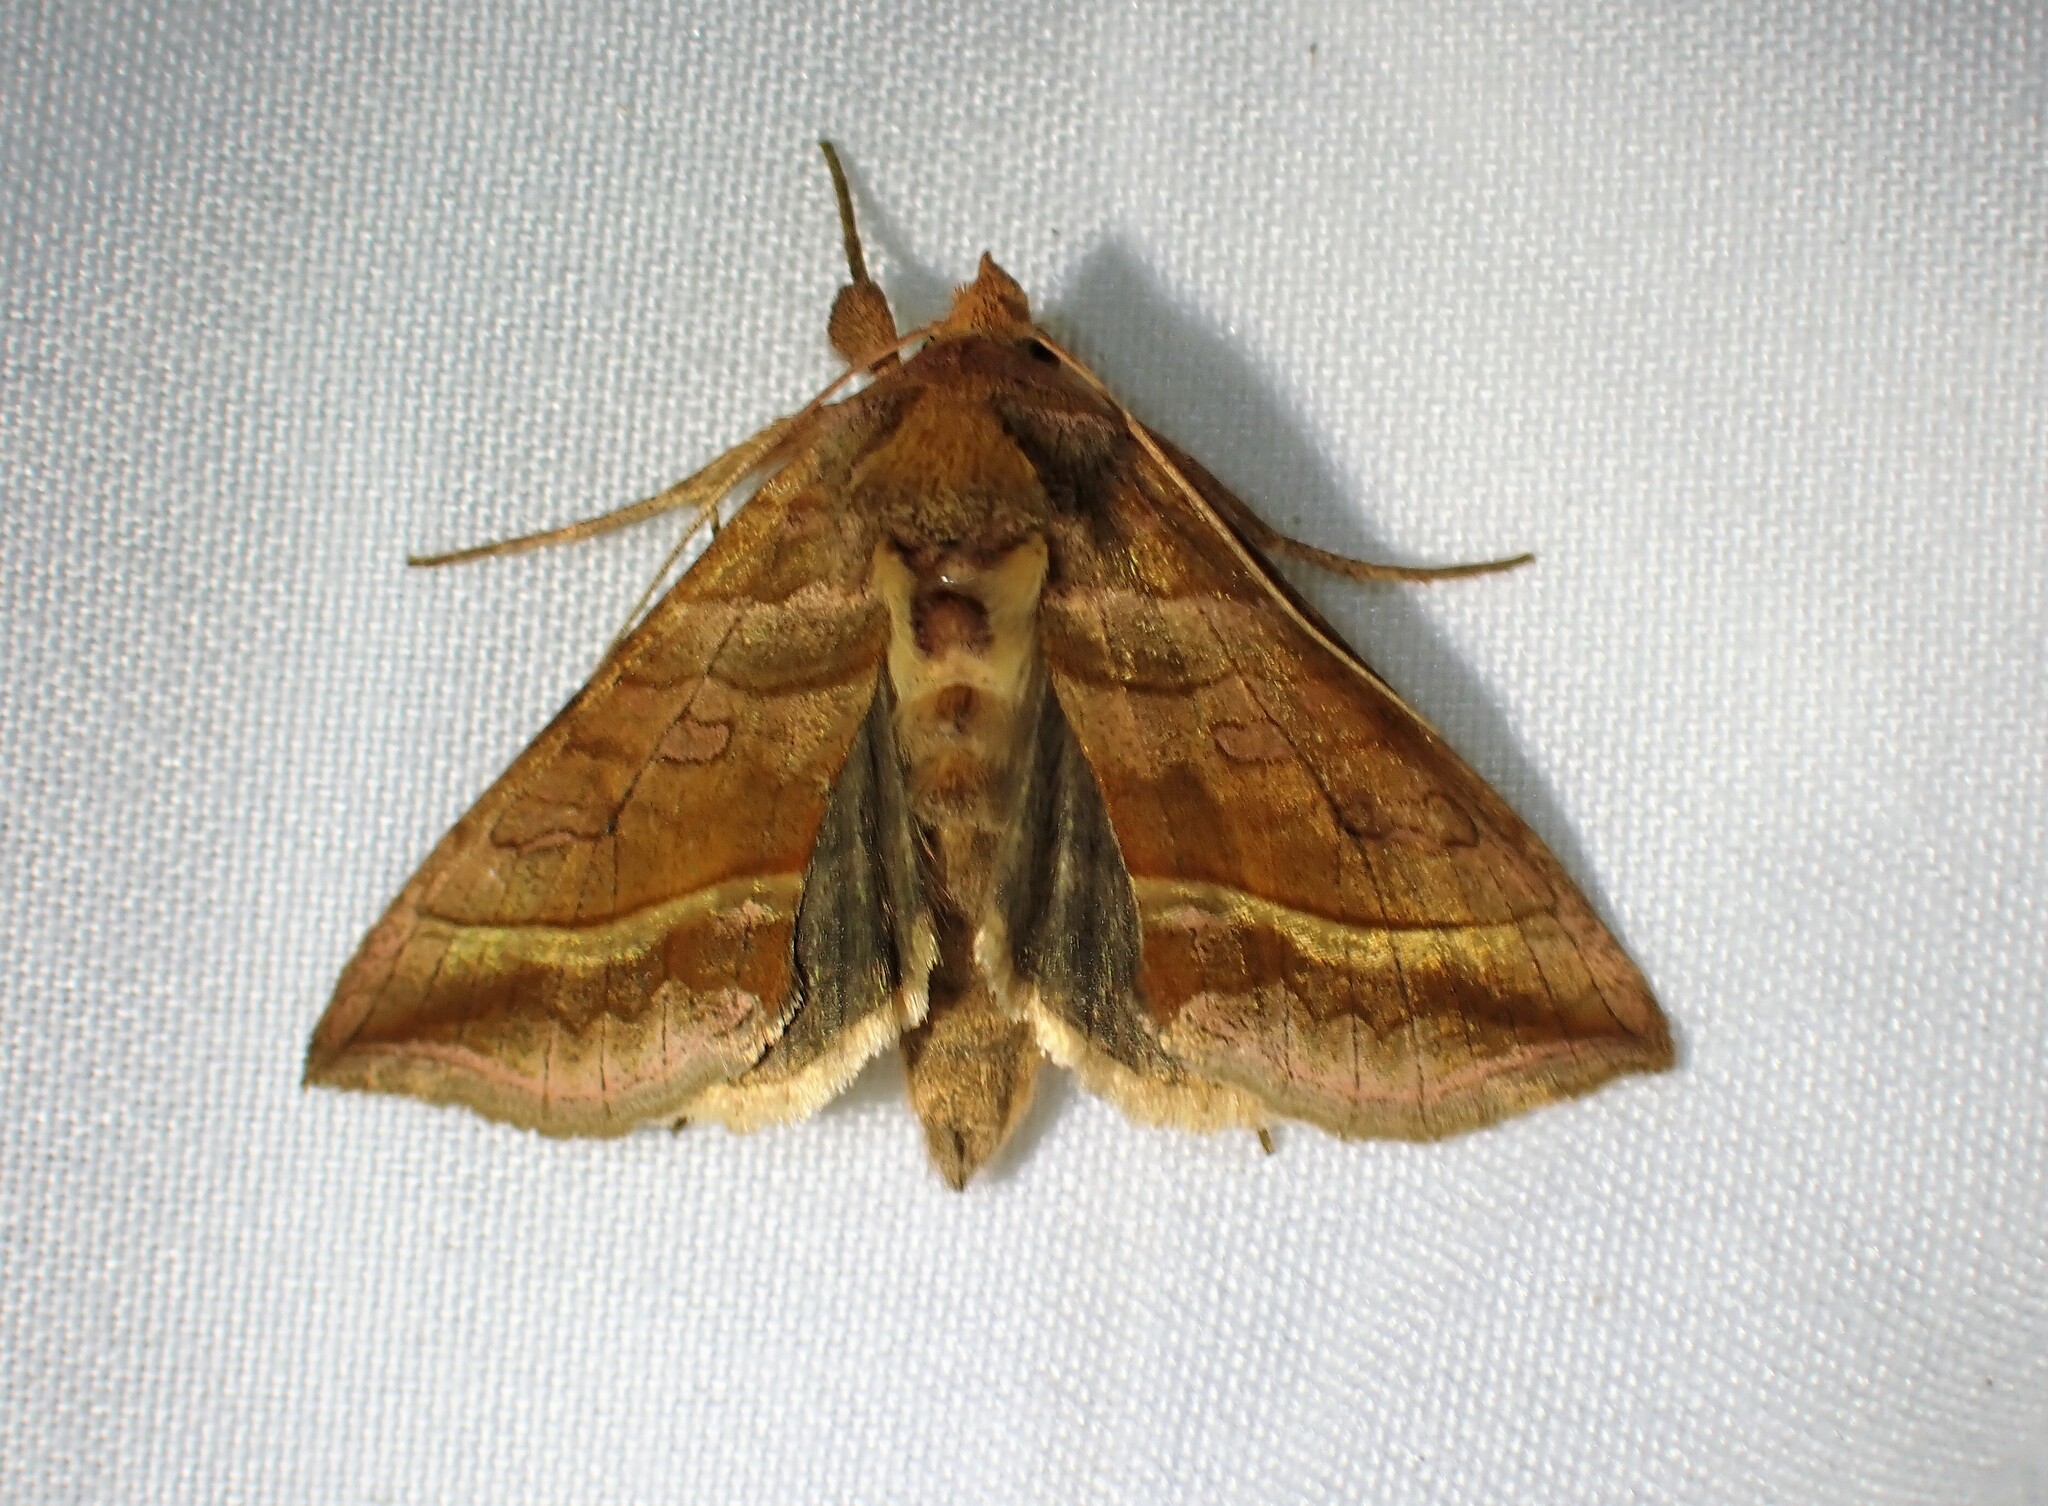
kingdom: Animalia
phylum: Arthropoda
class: Insecta
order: Lepidoptera
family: Noctuidae
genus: Diachrysia
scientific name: Diachrysia aereoides
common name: Dark-spotted looper moth
